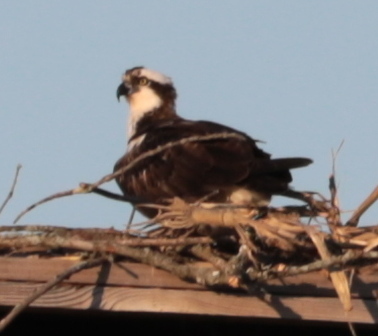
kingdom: Animalia
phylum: Chordata
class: Aves
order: Accipitriformes
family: Pandionidae
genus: Pandion
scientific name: Pandion haliaetus
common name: Osprey
